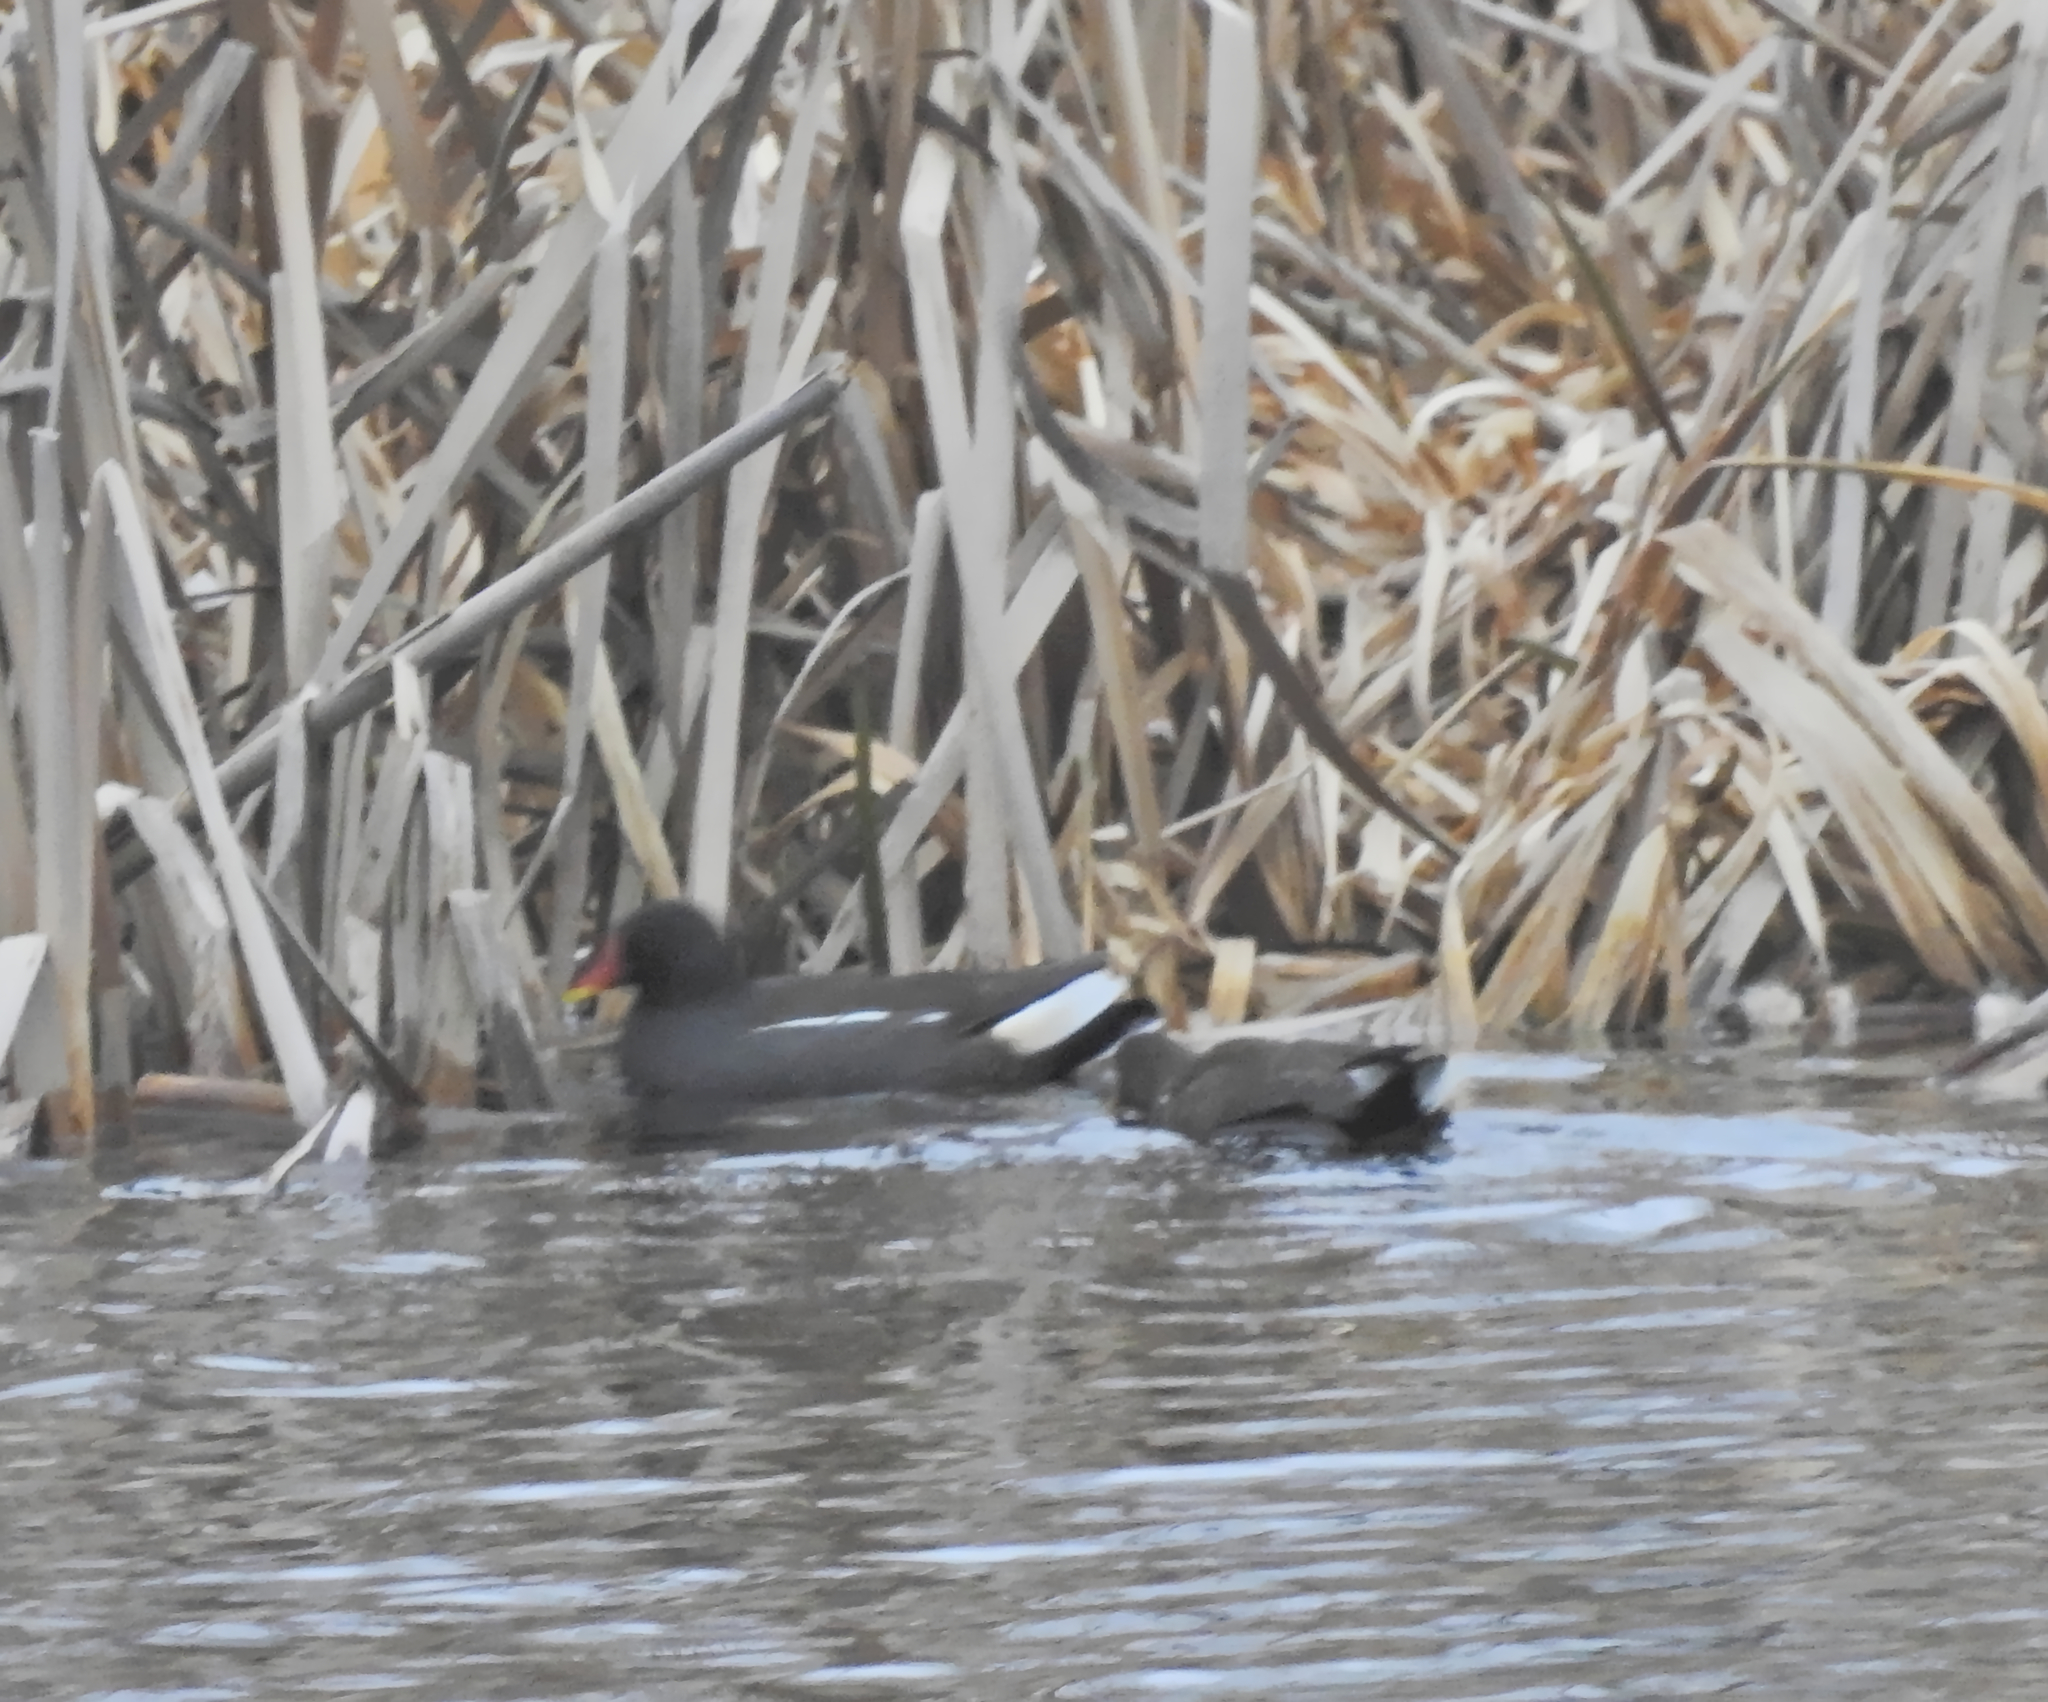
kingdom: Animalia
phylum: Chordata
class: Aves
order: Gruiformes
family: Rallidae
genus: Gallinula
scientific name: Gallinula chloropus
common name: Common moorhen
